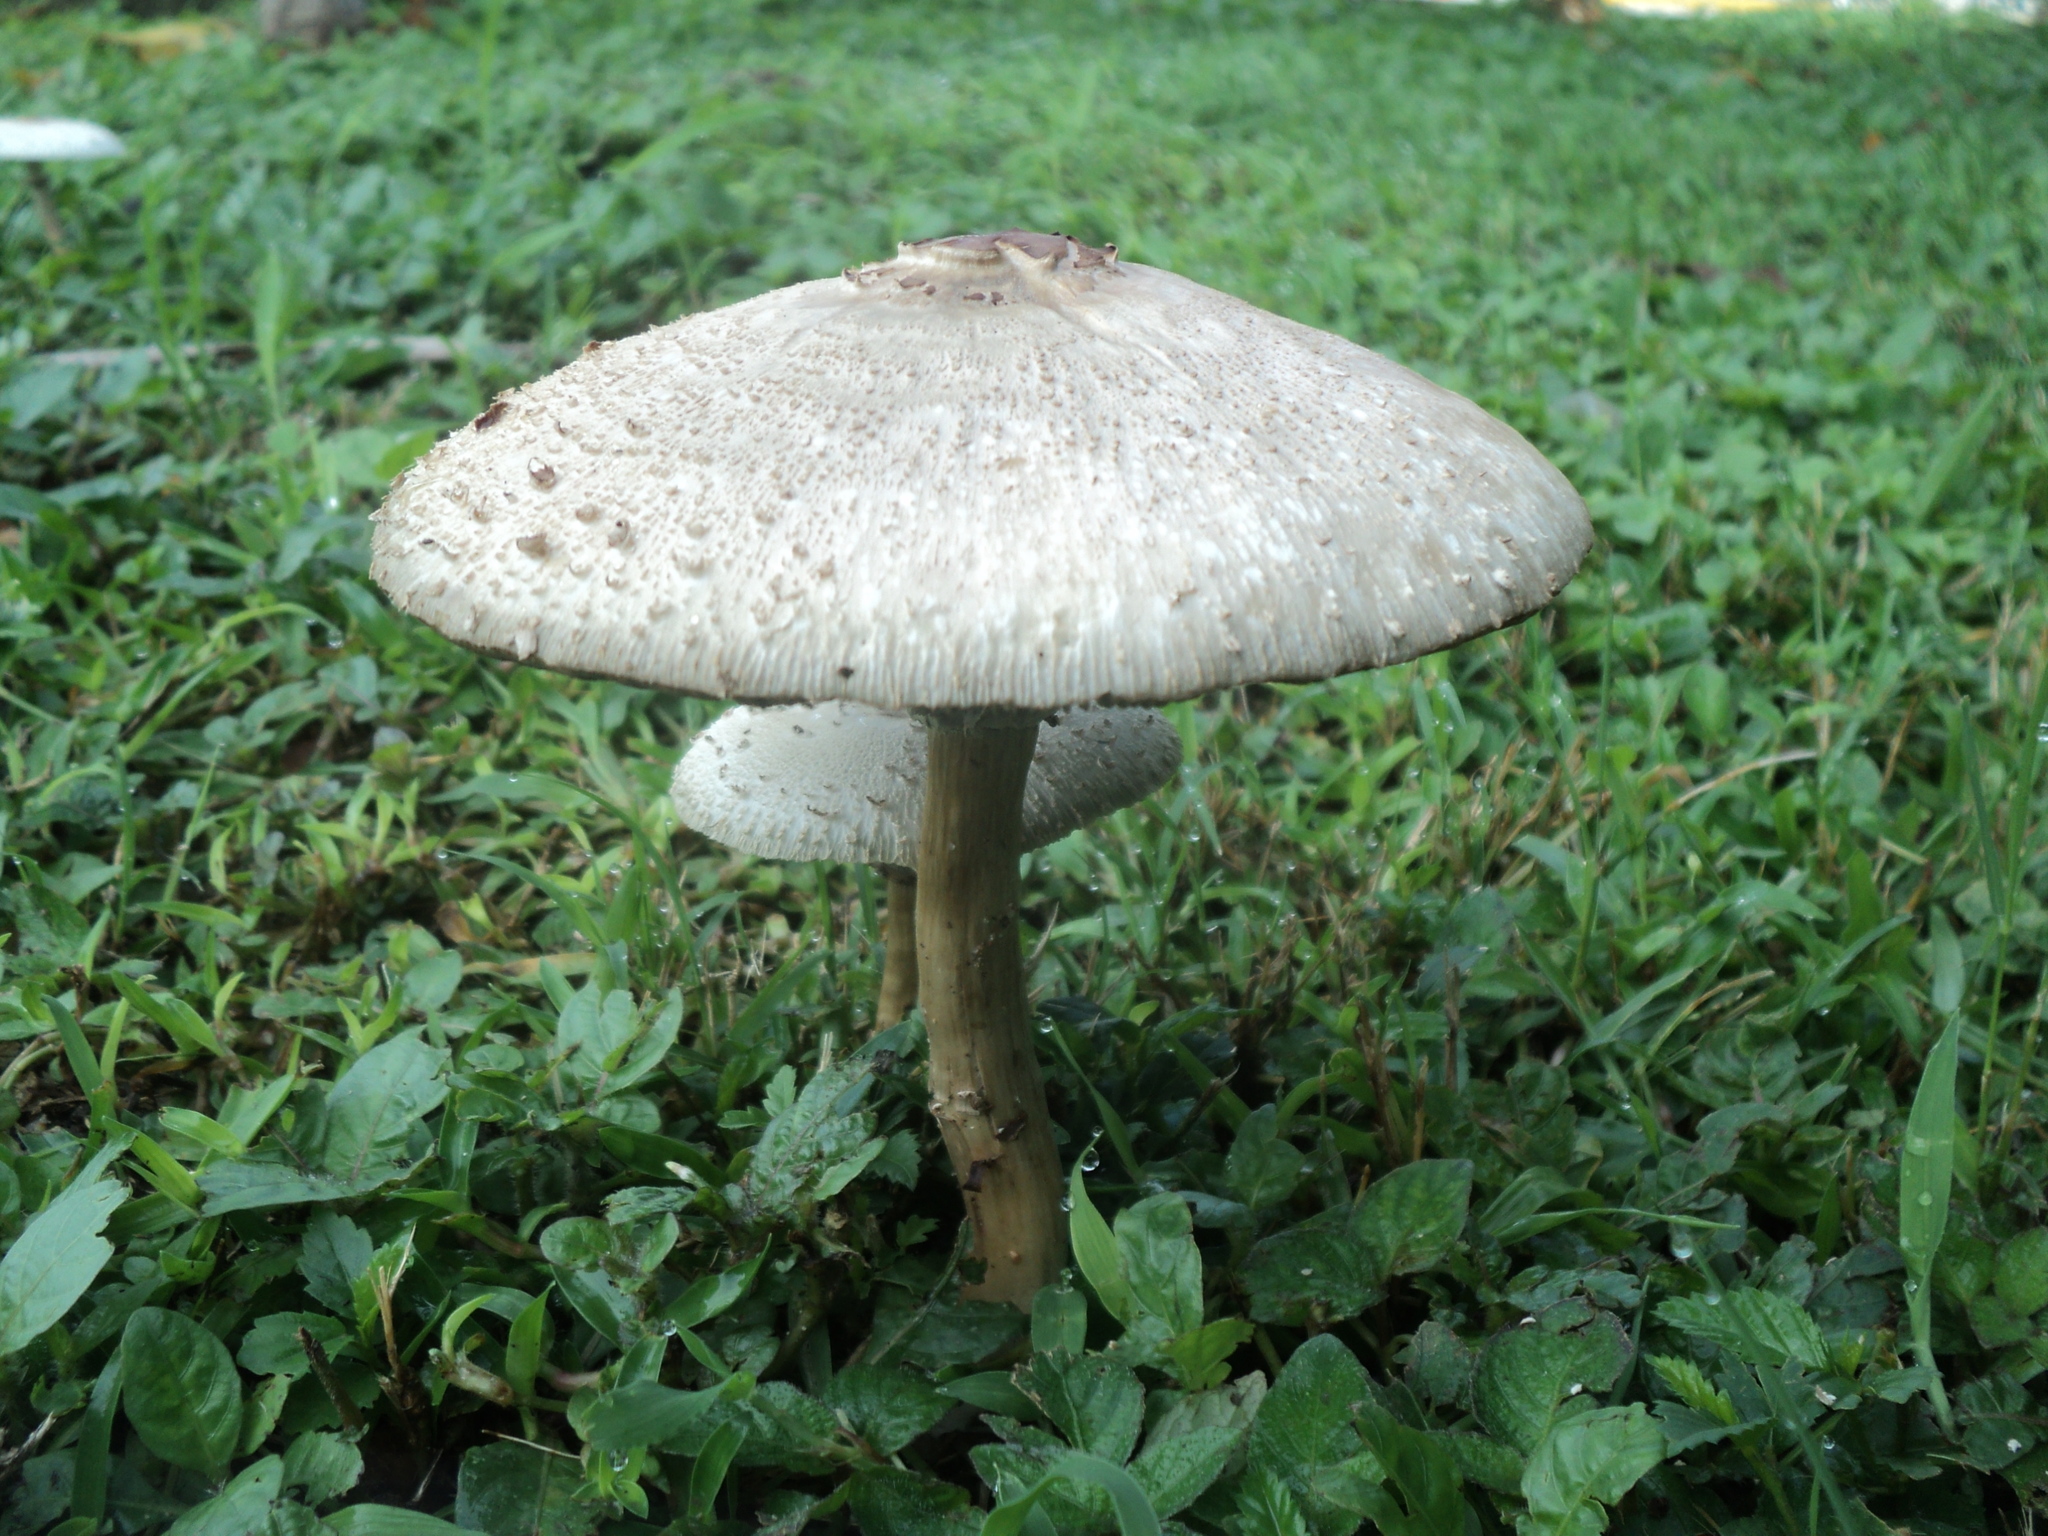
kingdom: Fungi
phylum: Basidiomycota
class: Agaricomycetes
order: Agaricales
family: Agaricaceae
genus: Chlorophyllum
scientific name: Chlorophyllum molybdites
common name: False parasol
